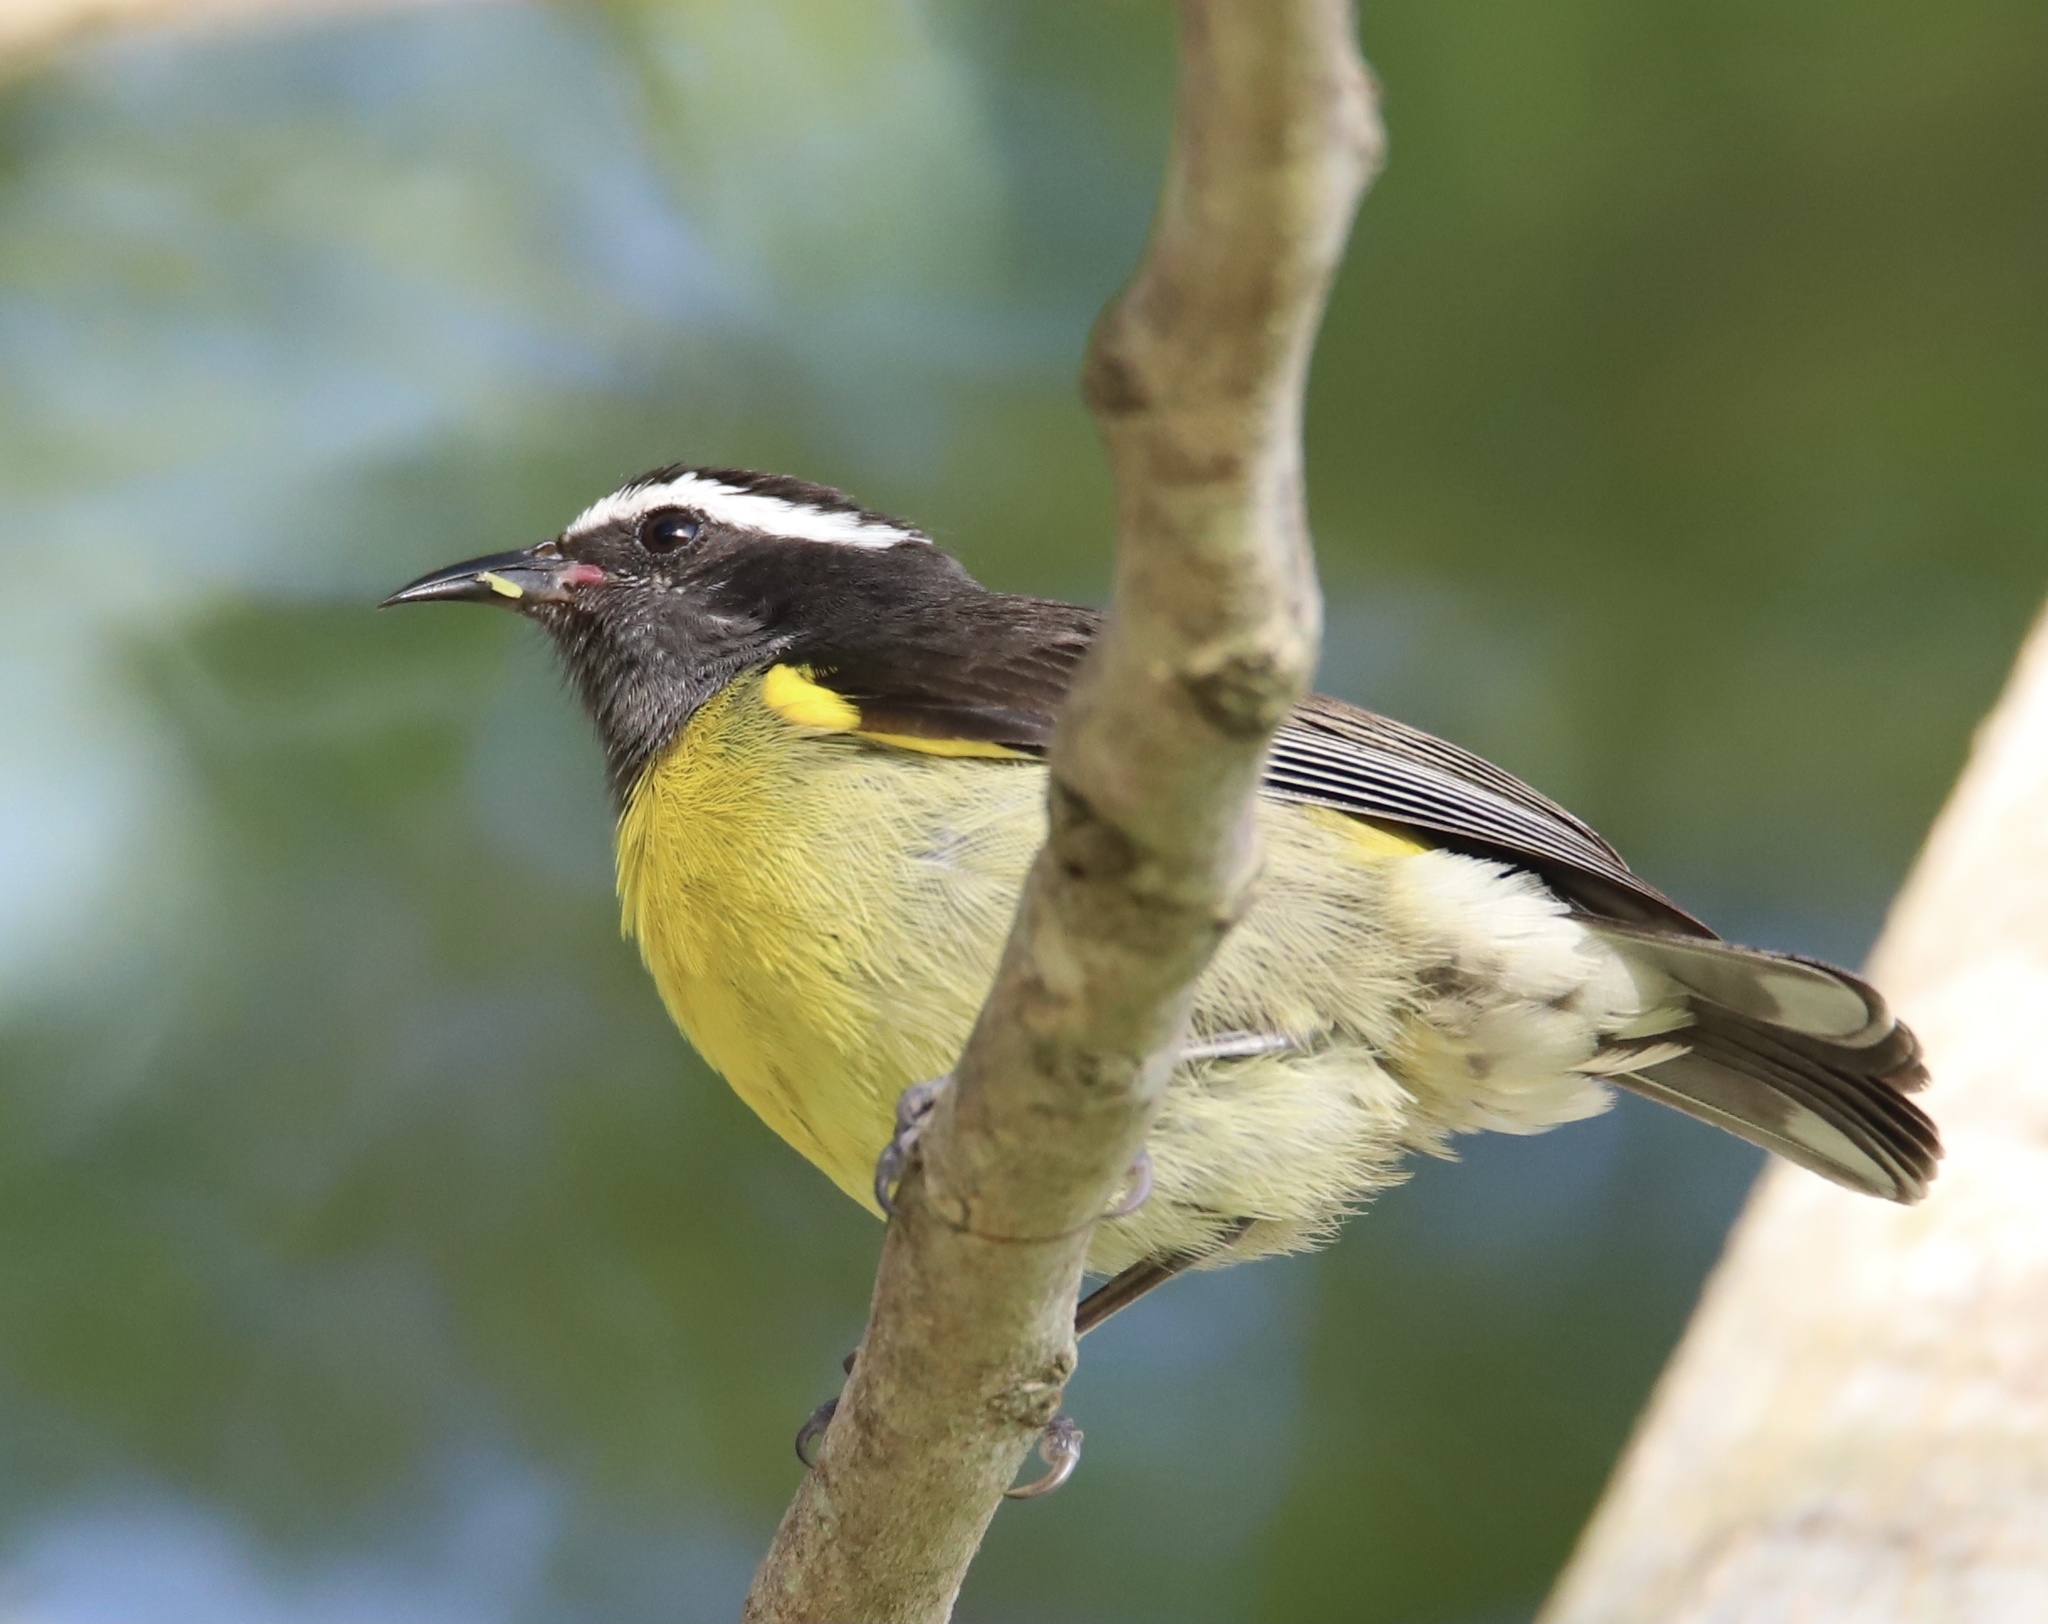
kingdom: Animalia
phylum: Chordata
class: Aves
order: Passeriformes
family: Thraupidae
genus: Coereba
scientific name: Coereba flaveola
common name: Bananaquit
